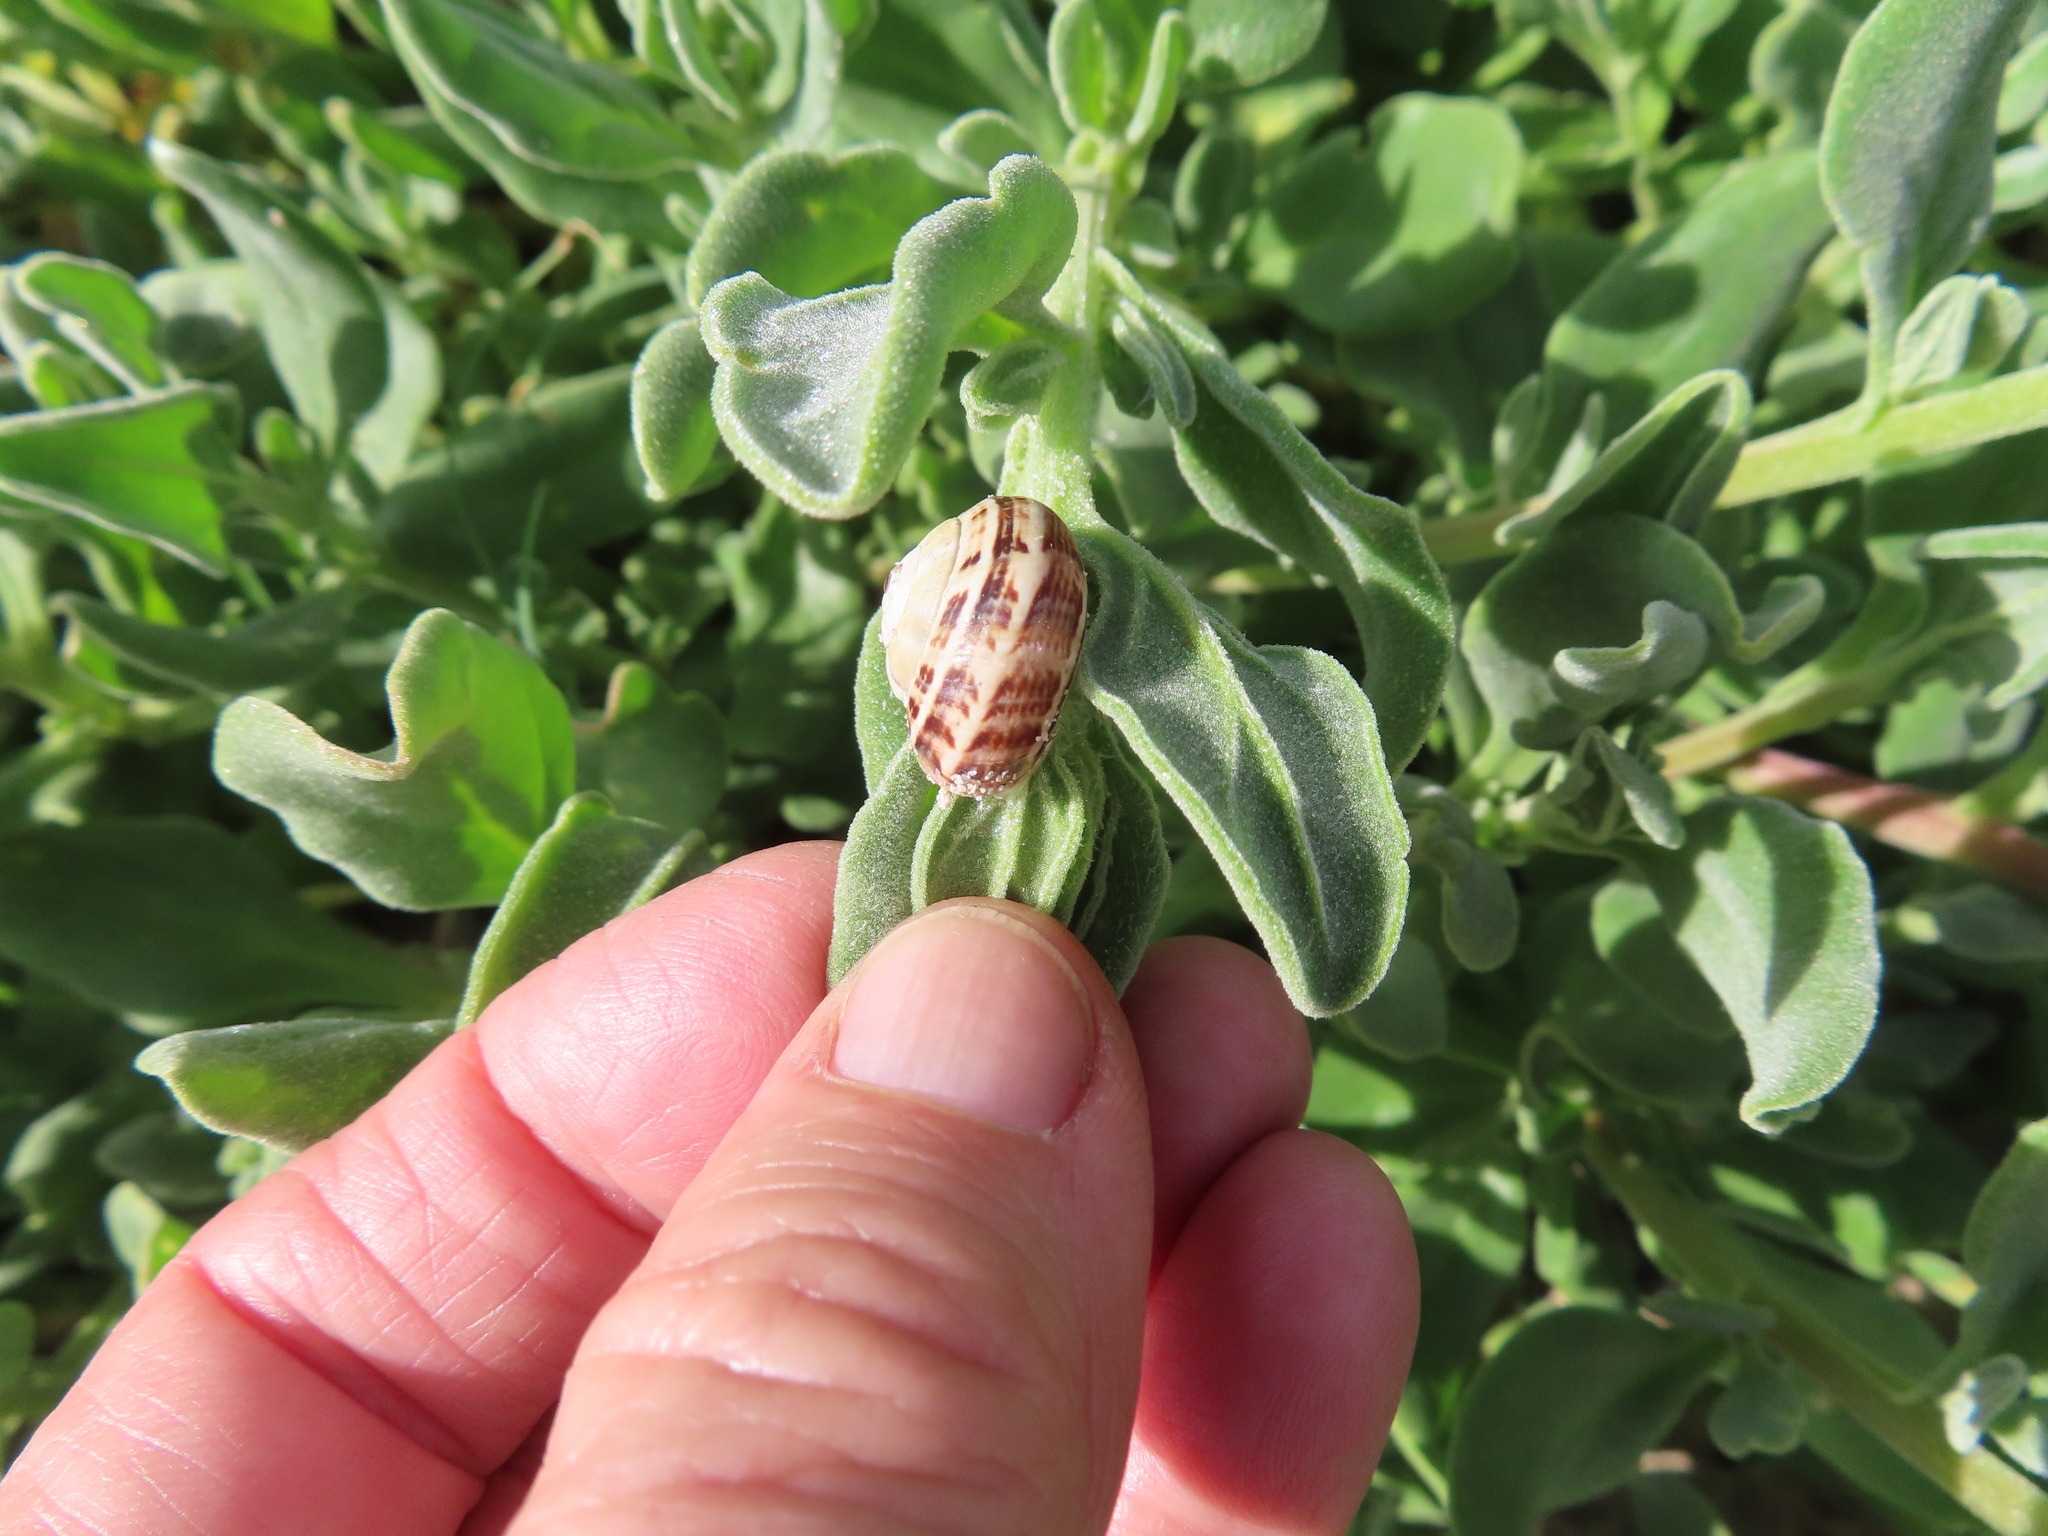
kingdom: Plantae
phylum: Tracheophyta
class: Magnoliopsida
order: Caryophyllales
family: Aizoaceae
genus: Tetragonia
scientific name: Tetragonia decumbens
